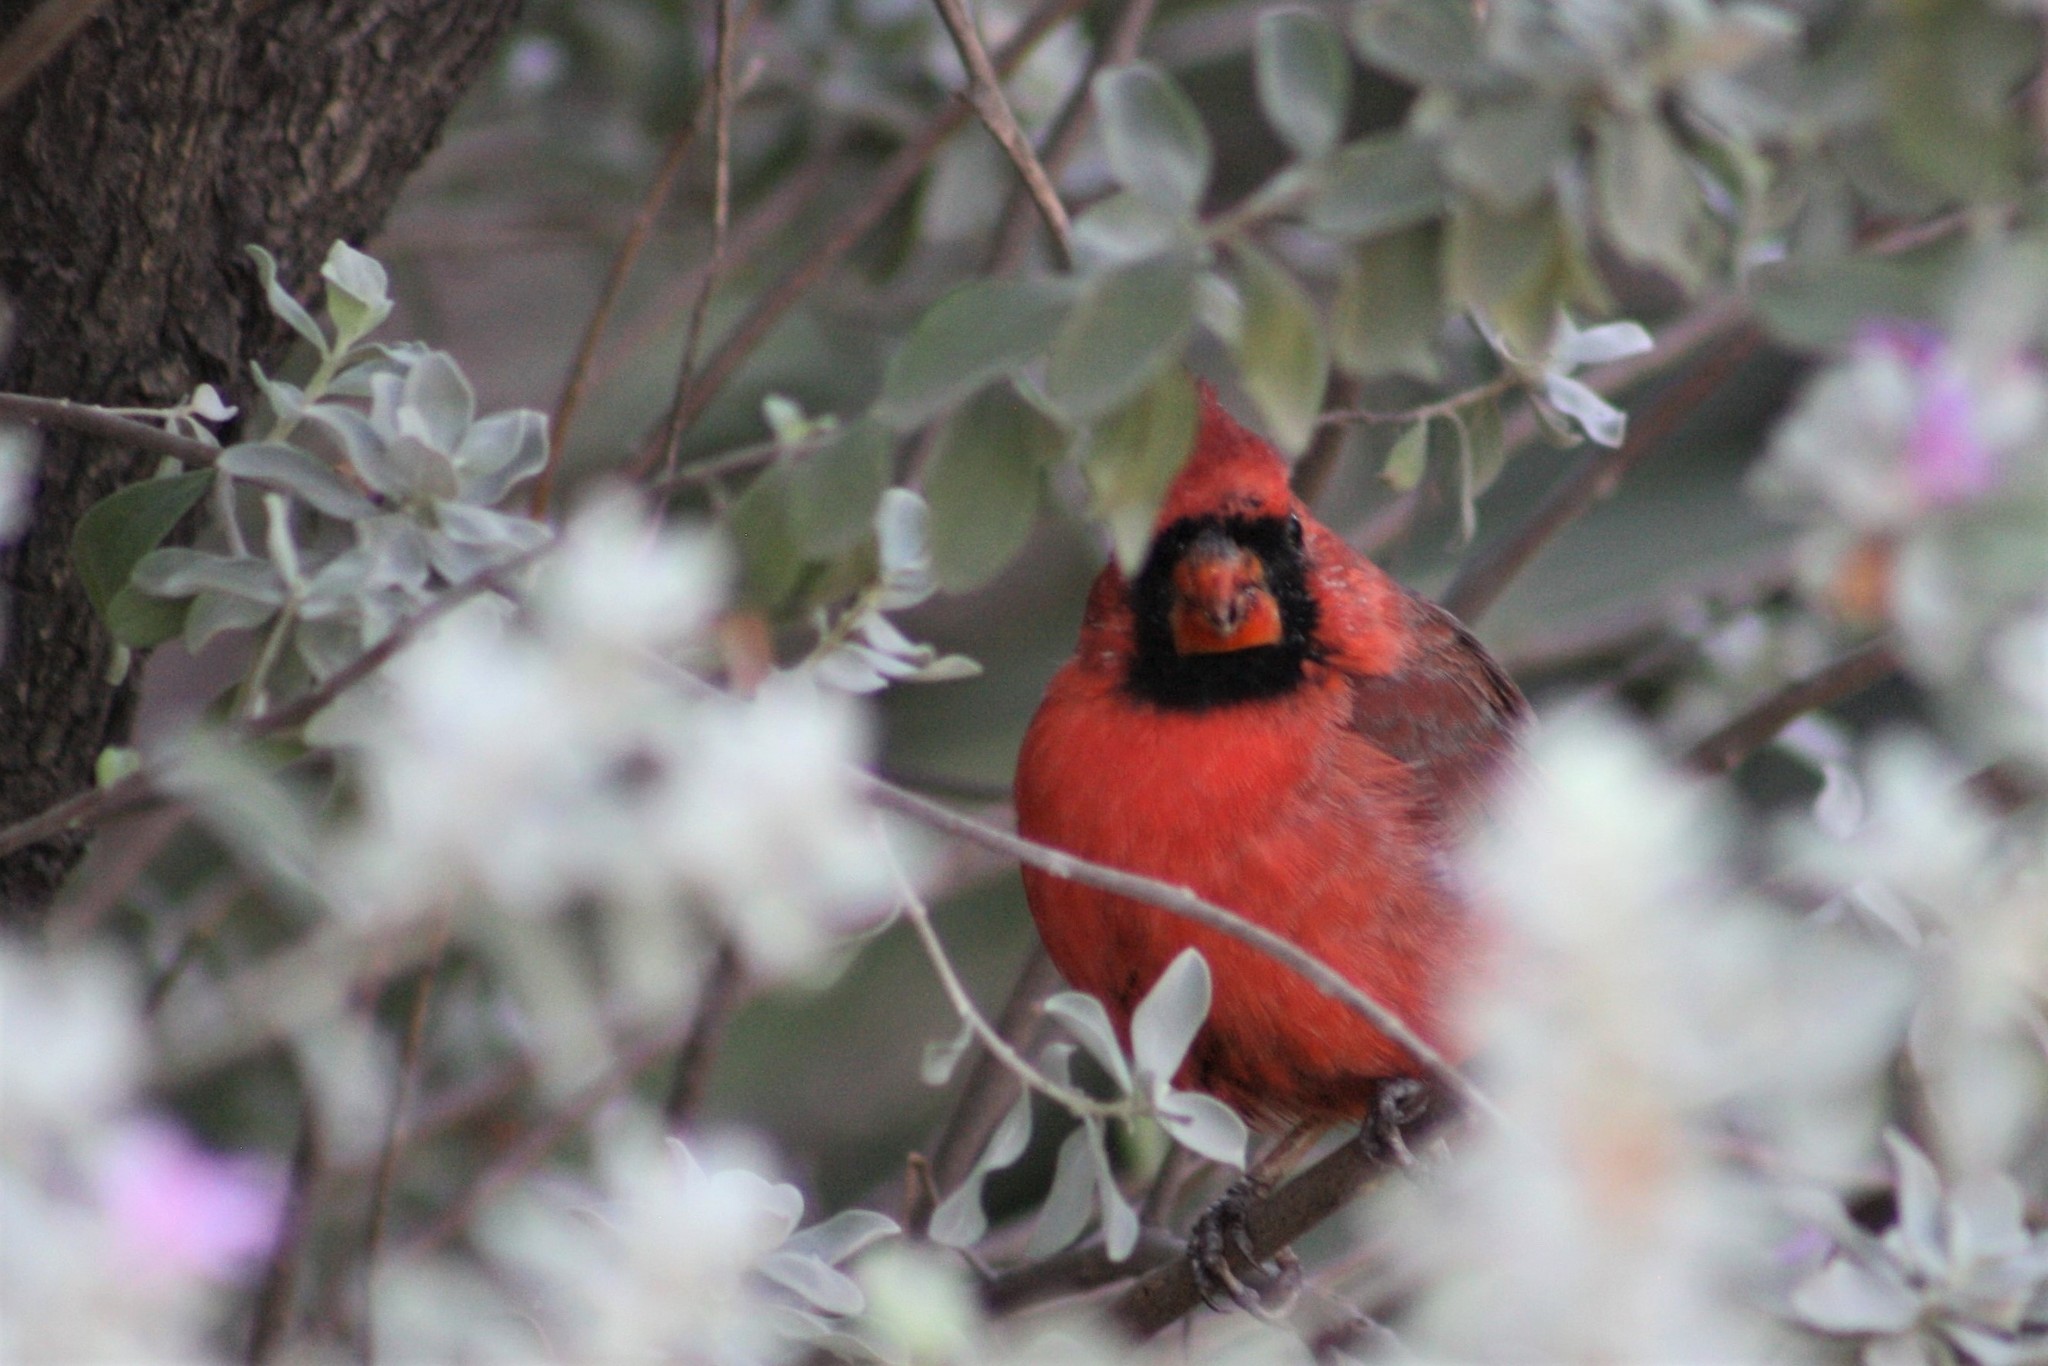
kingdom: Animalia
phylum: Chordata
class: Aves
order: Passeriformes
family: Cardinalidae
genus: Cardinalis
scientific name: Cardinalis cardinalis
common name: Northern cardinal
